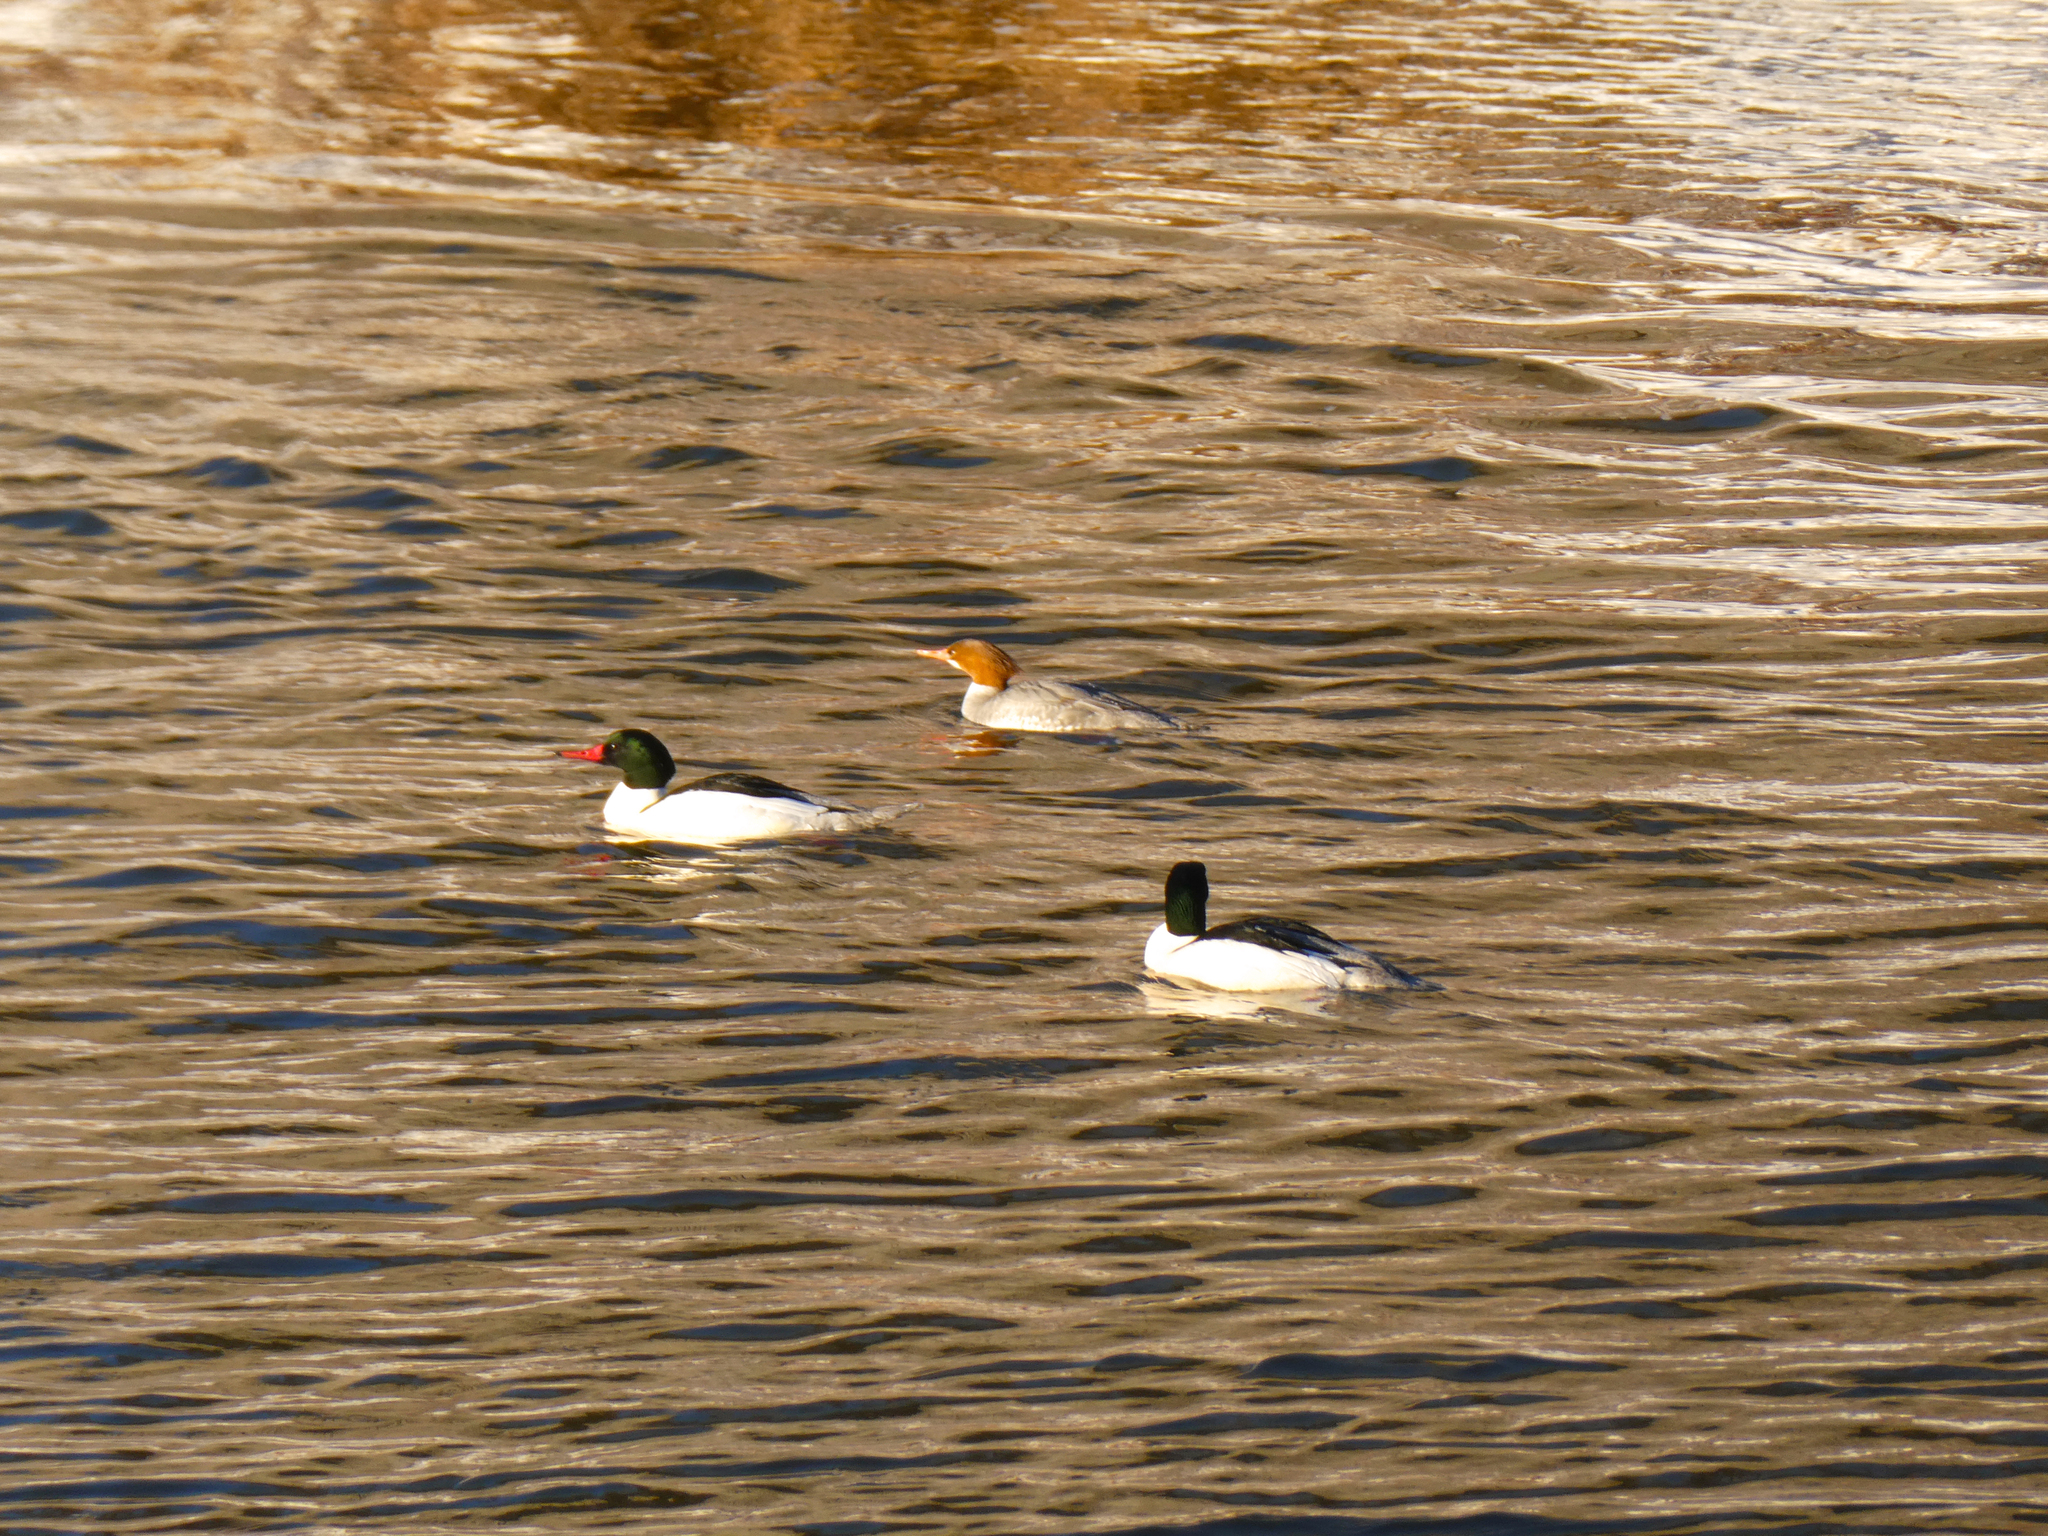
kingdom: Animalia
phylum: Chordata
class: Aves
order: Anseriformes
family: Anatidae
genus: Mergus
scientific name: Mergus merganser
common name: Common merganser
